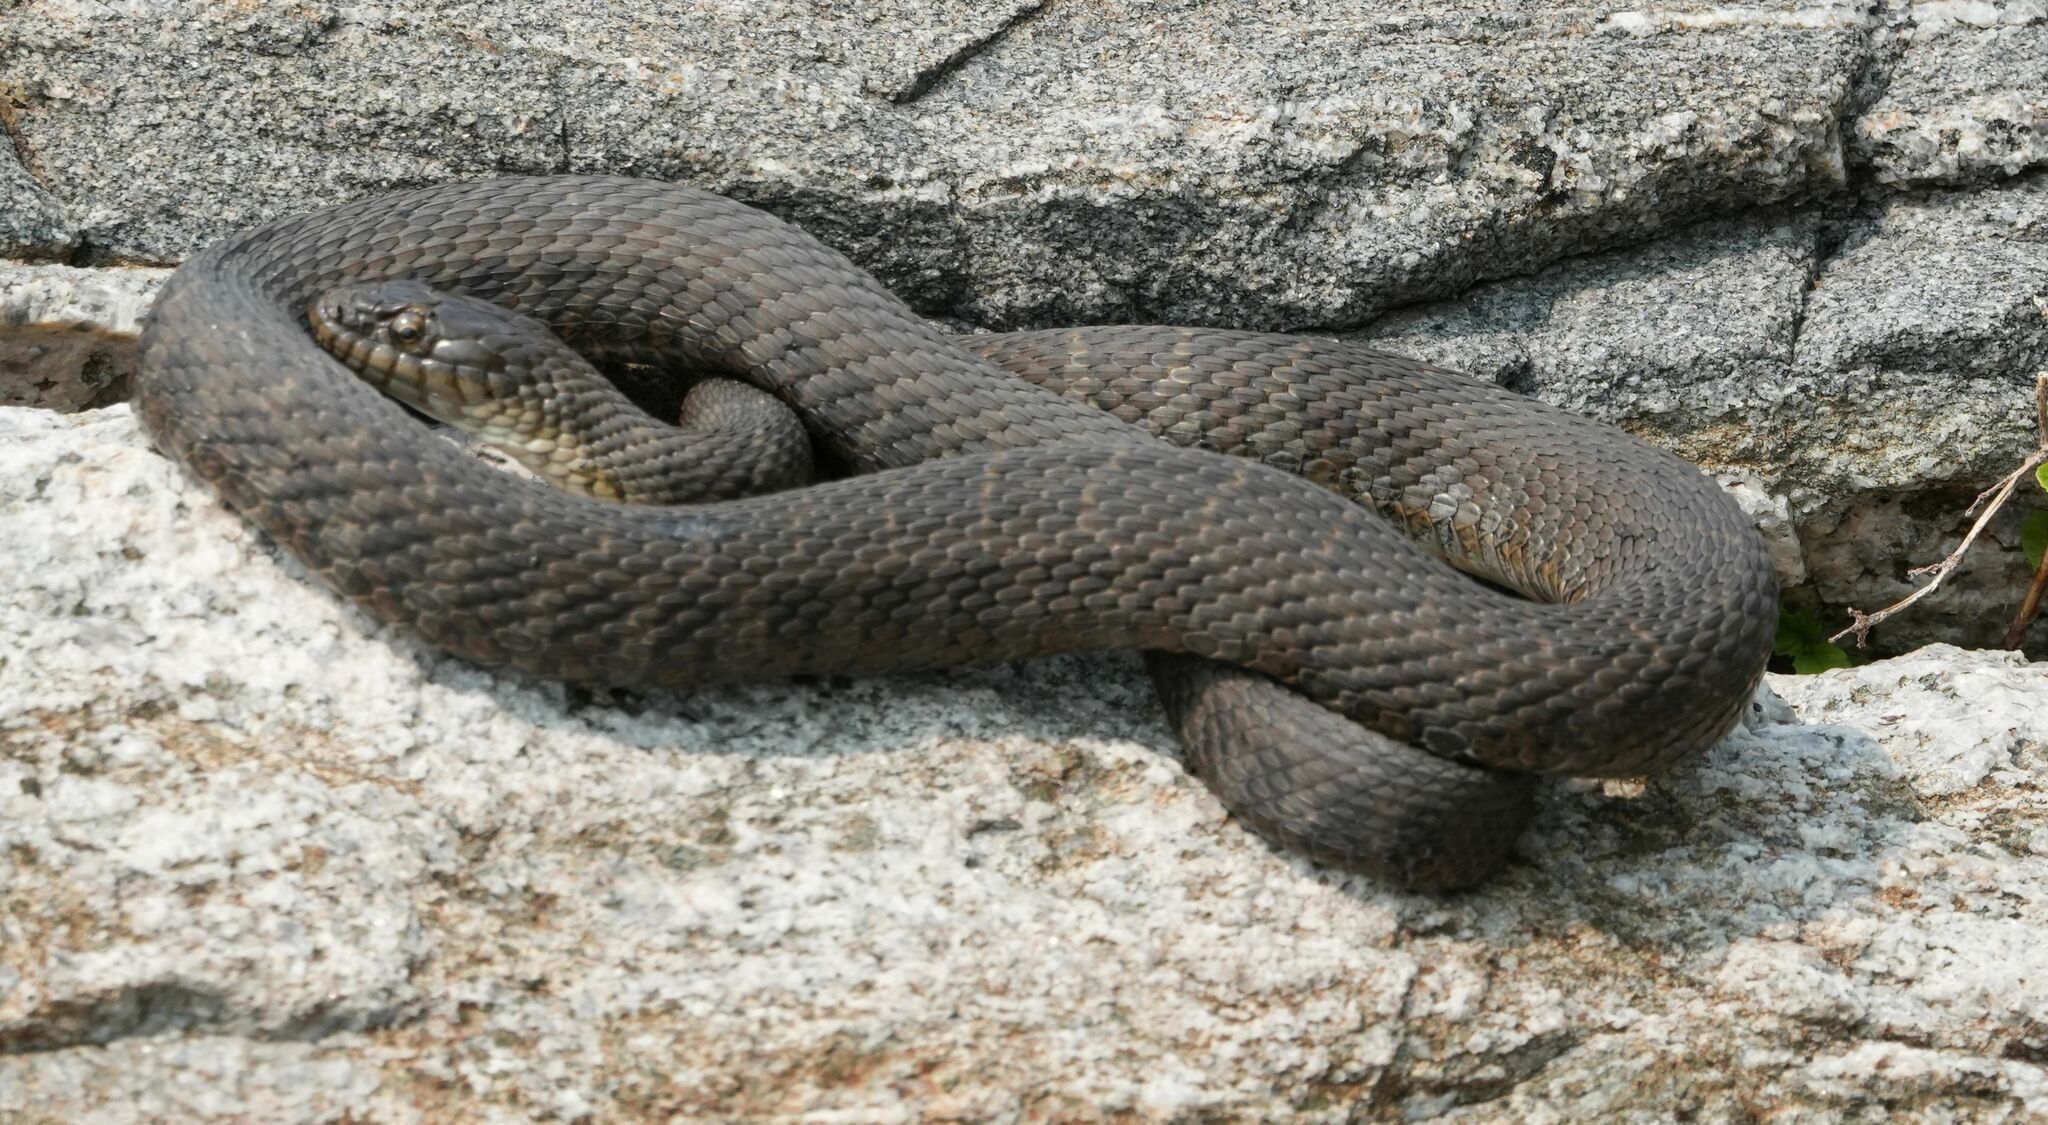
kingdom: Animalia
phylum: Chordata
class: Squamata
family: Colubridae
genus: Nerodia
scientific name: Nerodia sipedon
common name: Northern water snake
